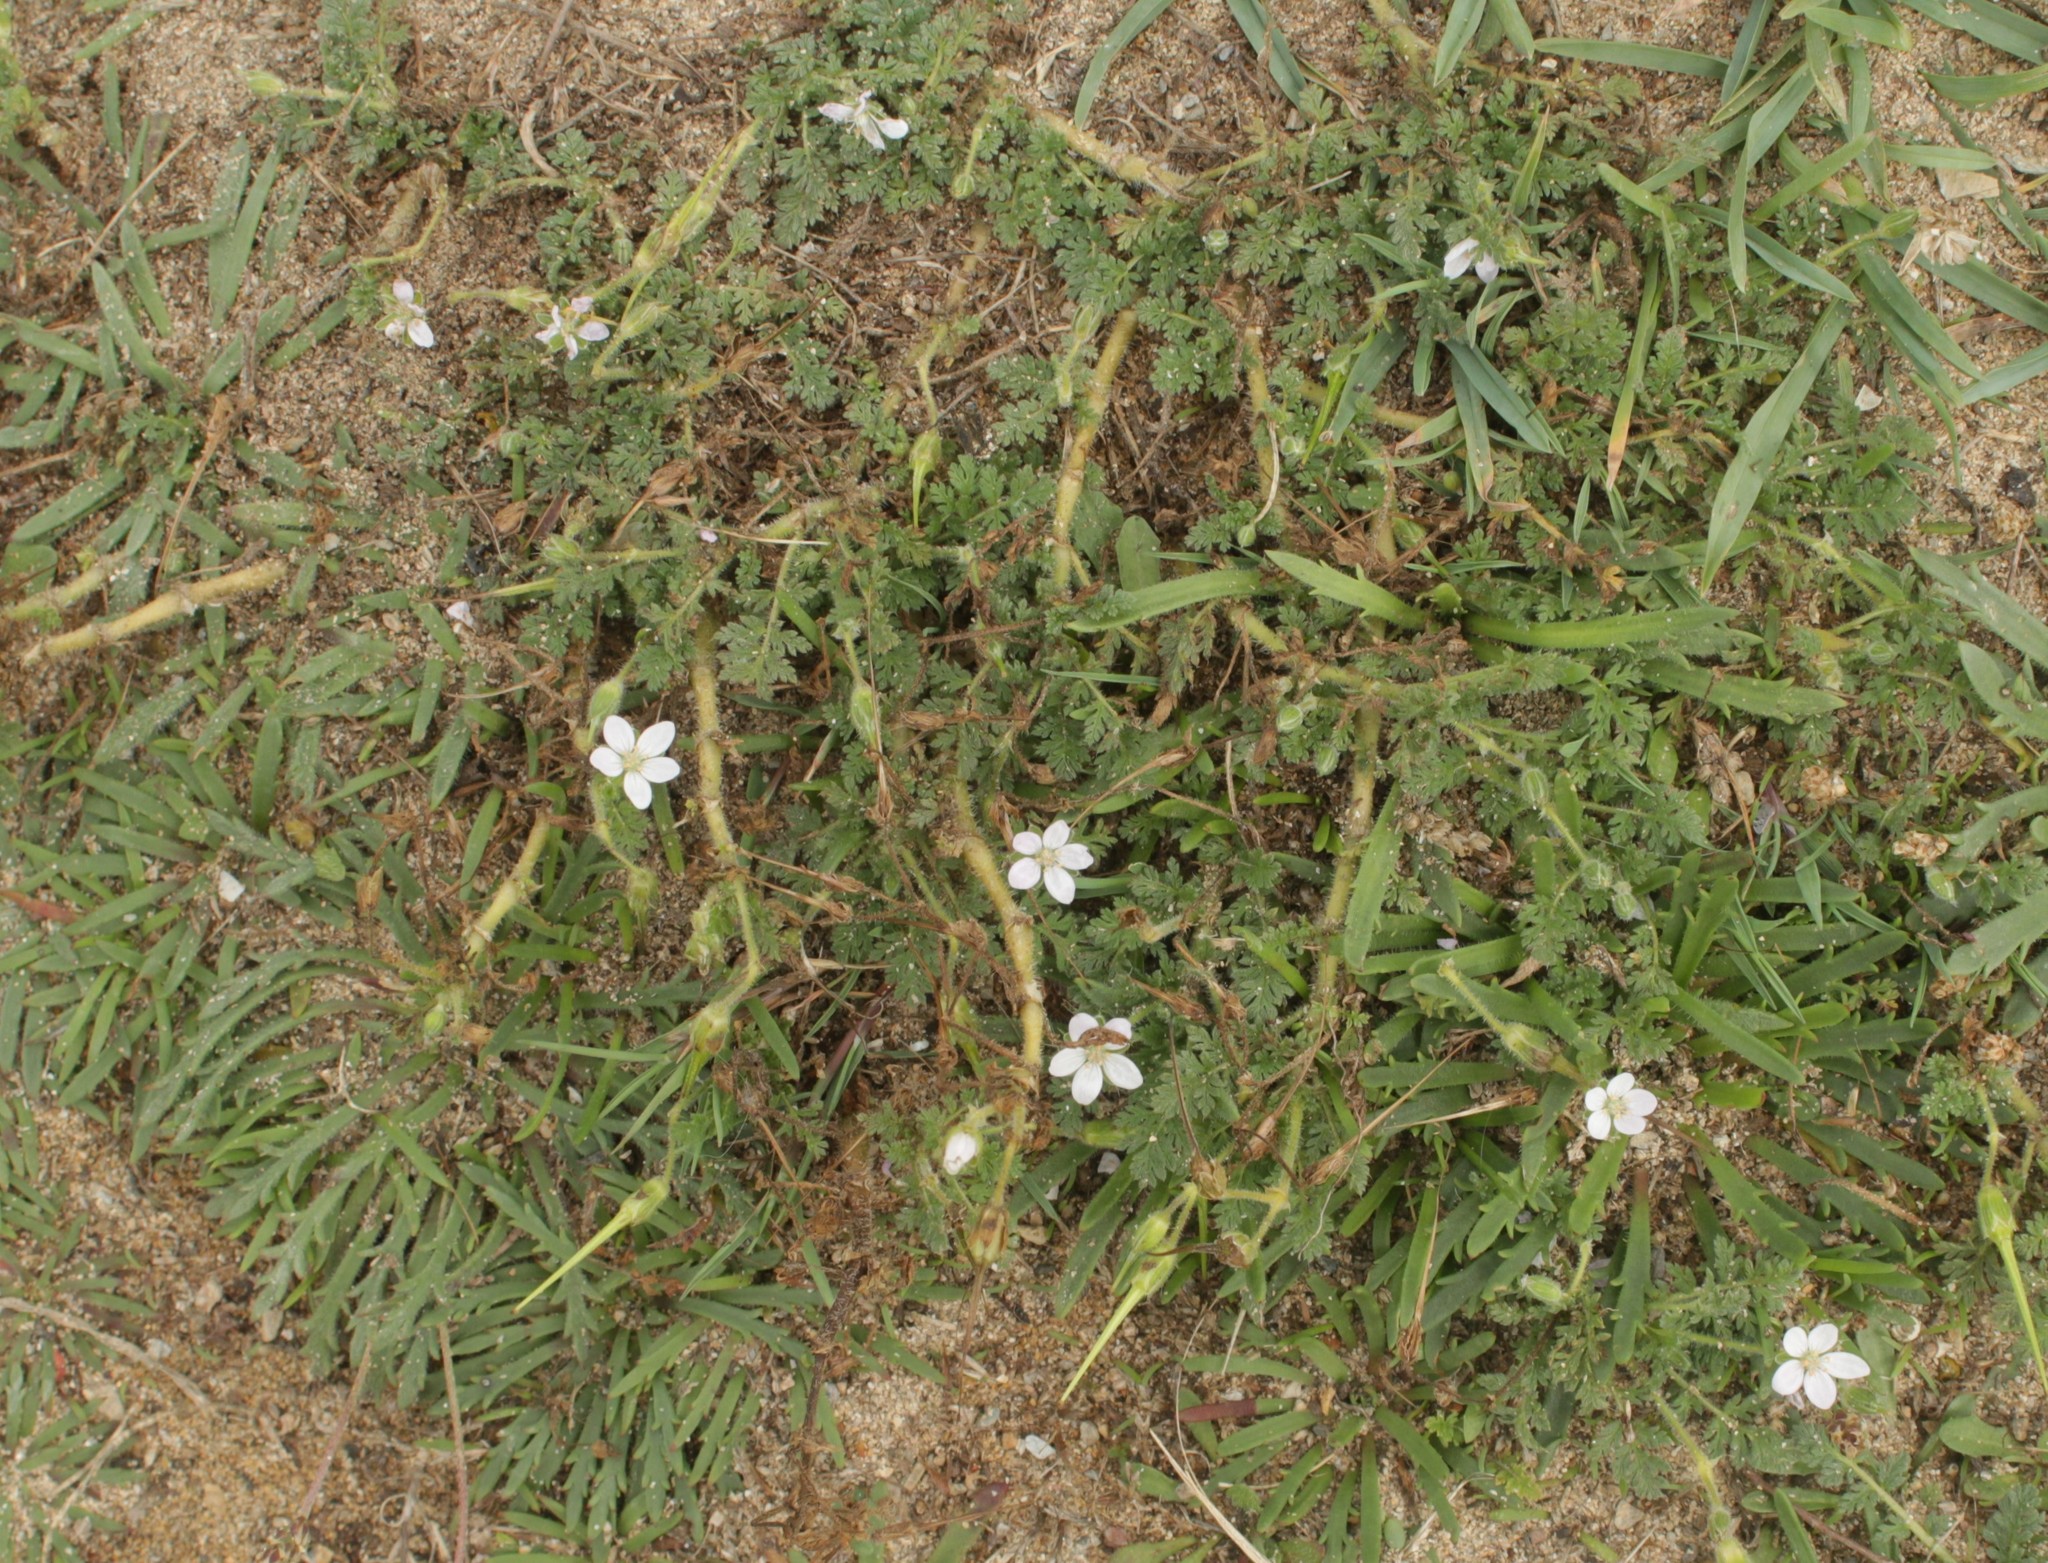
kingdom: Plantae
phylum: Tracheophyta
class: Magnoliopsida
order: Geraniales
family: Geraniaceae
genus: Erodium
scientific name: Erodium cicutarium
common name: Common stork's-bill
